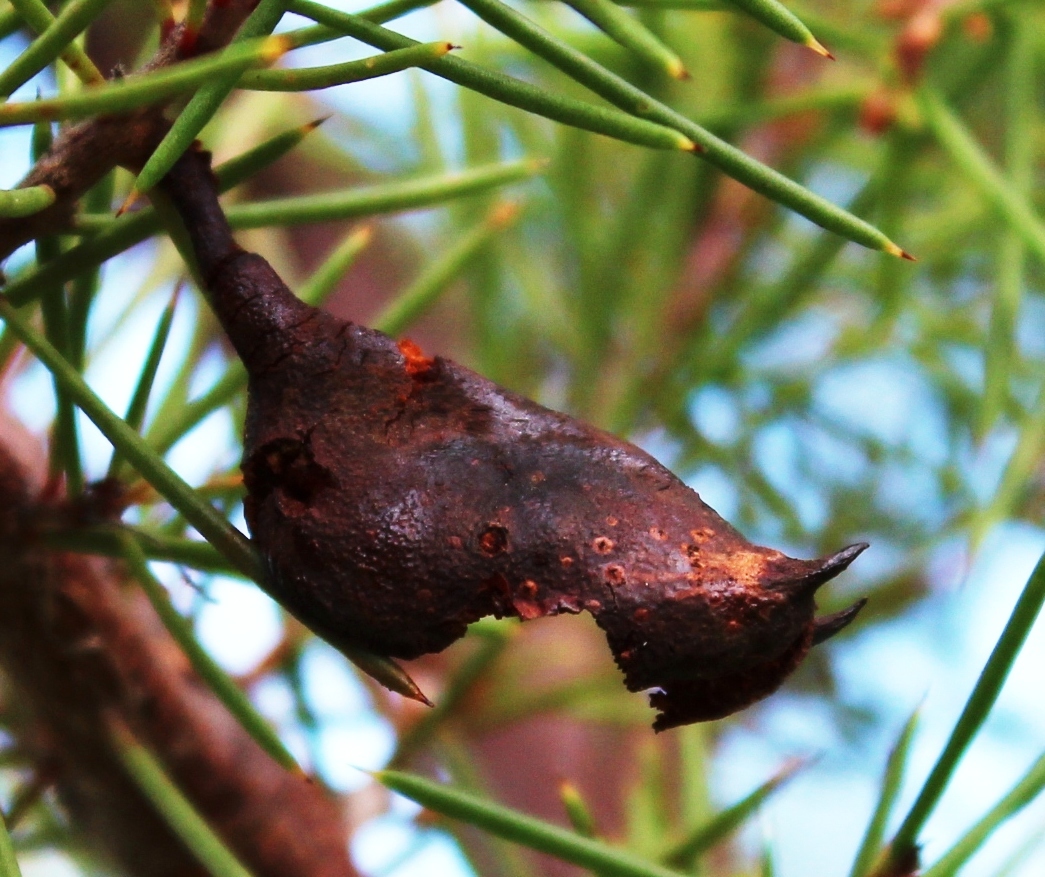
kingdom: Plantae
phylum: Tracheophyta
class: Magnoliopsida
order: Proteales
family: Proteaceae
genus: Hakea
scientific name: Hakea sericea
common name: Needle bush
